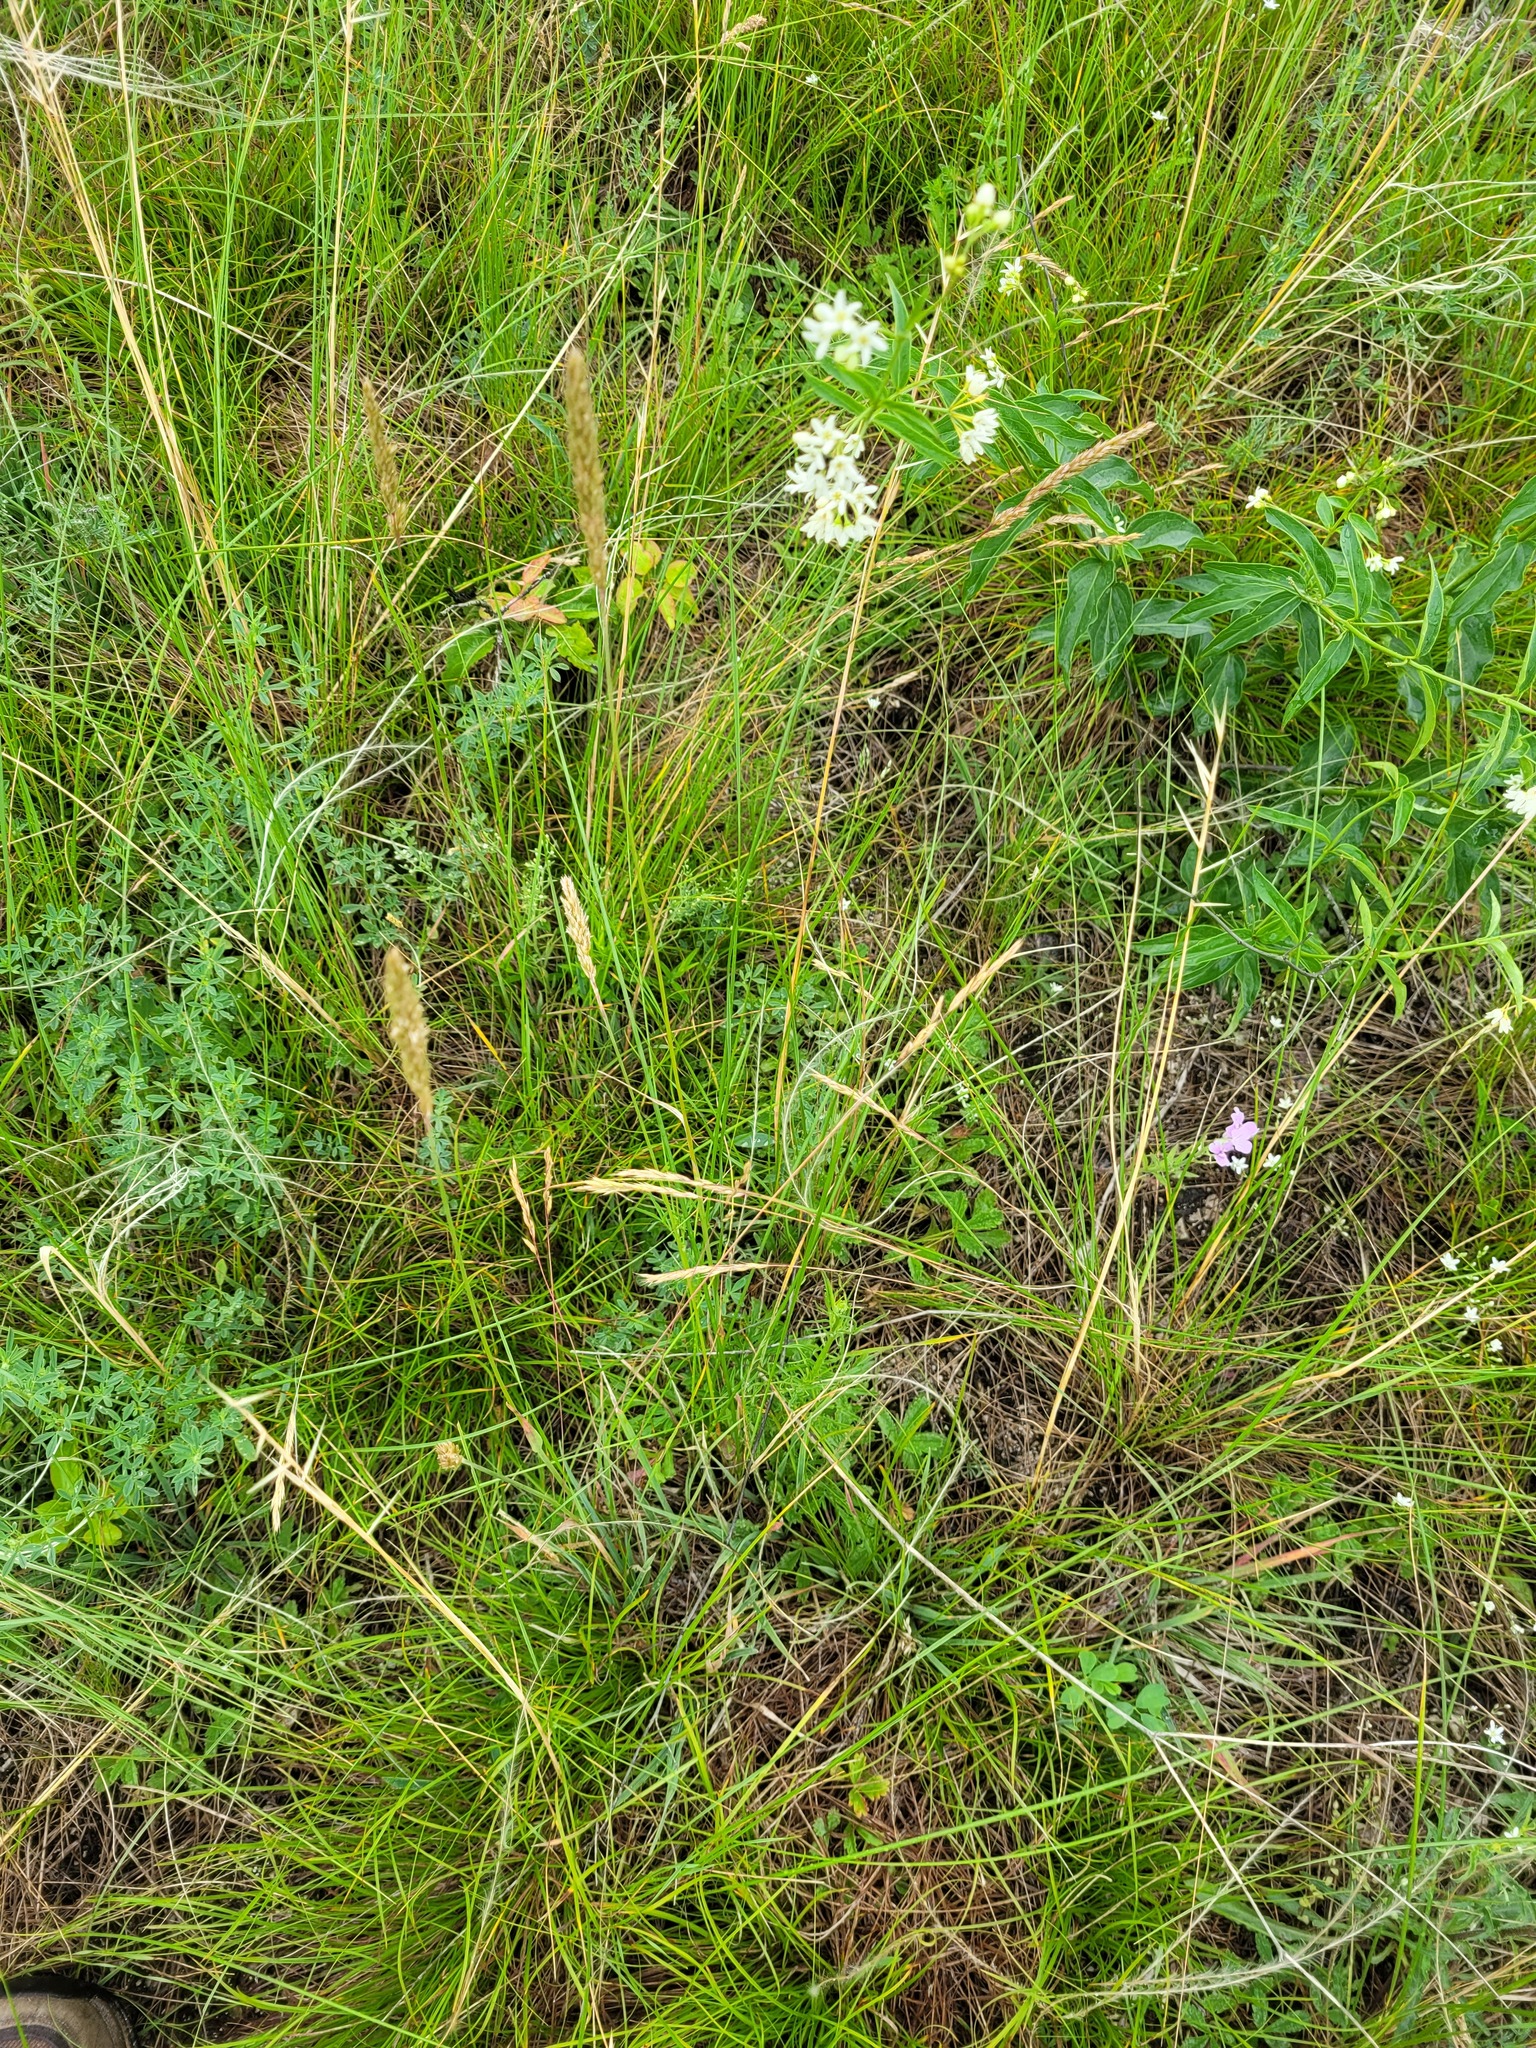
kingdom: Plantae
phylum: Tracheophyta
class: Liliopsida
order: Poales
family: Poaceae
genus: Koeleria
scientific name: Koeleria macrantha
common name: Crested hair-grass
